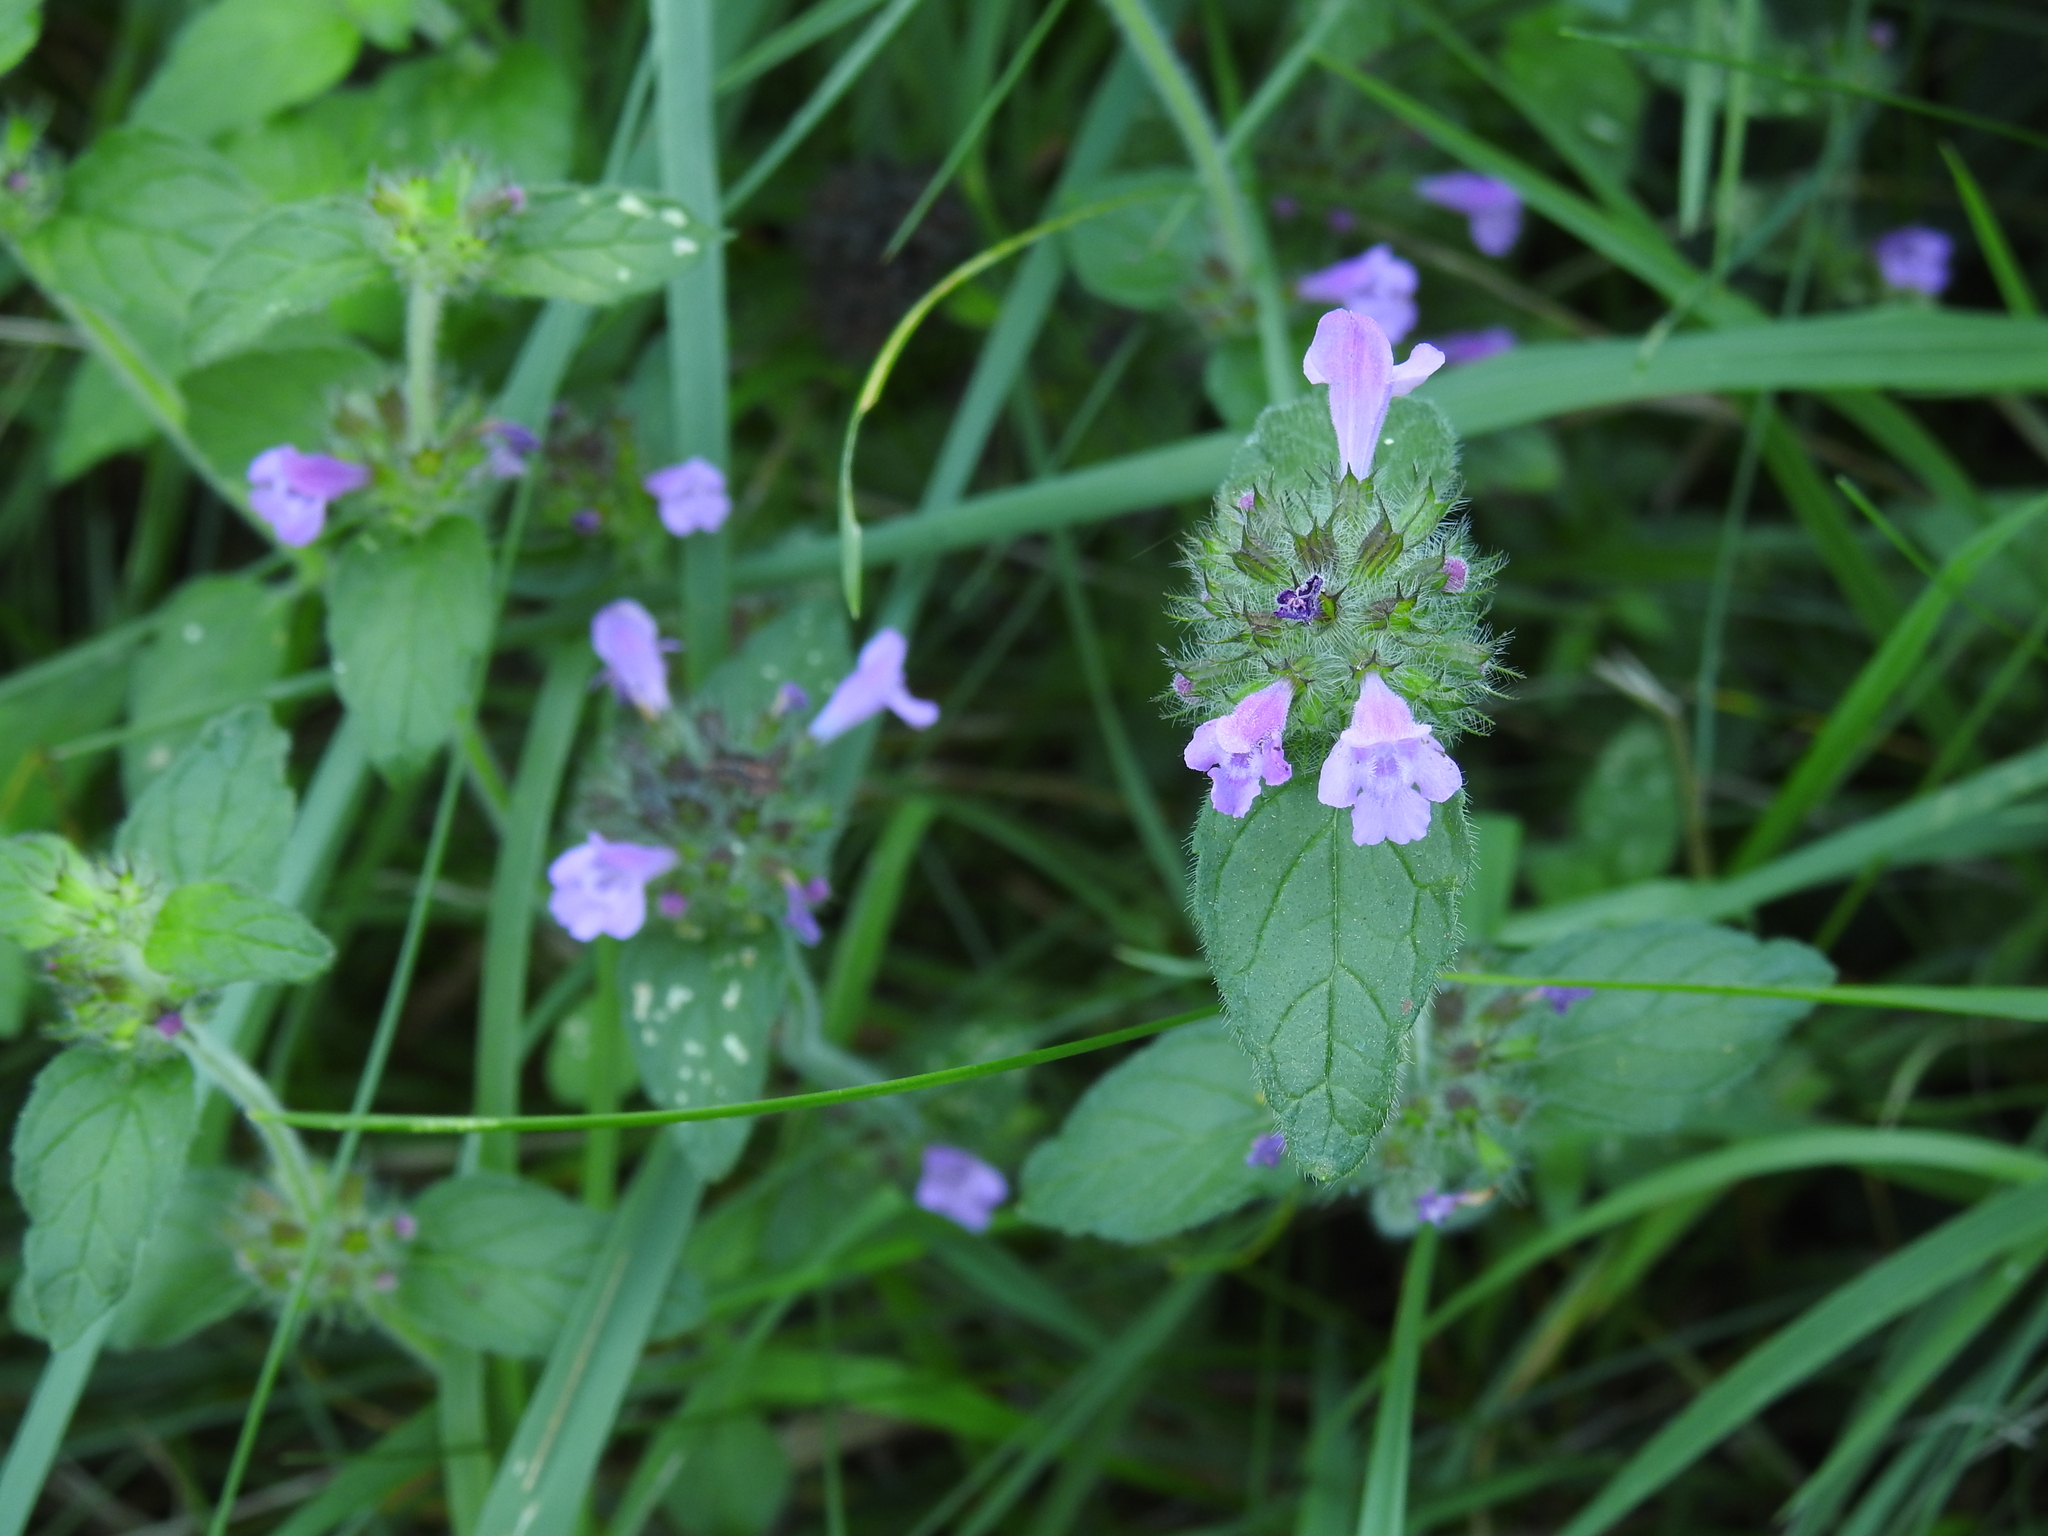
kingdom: Plantae
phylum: Tracheophyta
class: Magnoliopsida
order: Lamiales
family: Lamiaceae
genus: Clinopodium
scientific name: Clinopodium vulgare
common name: Wild basil
